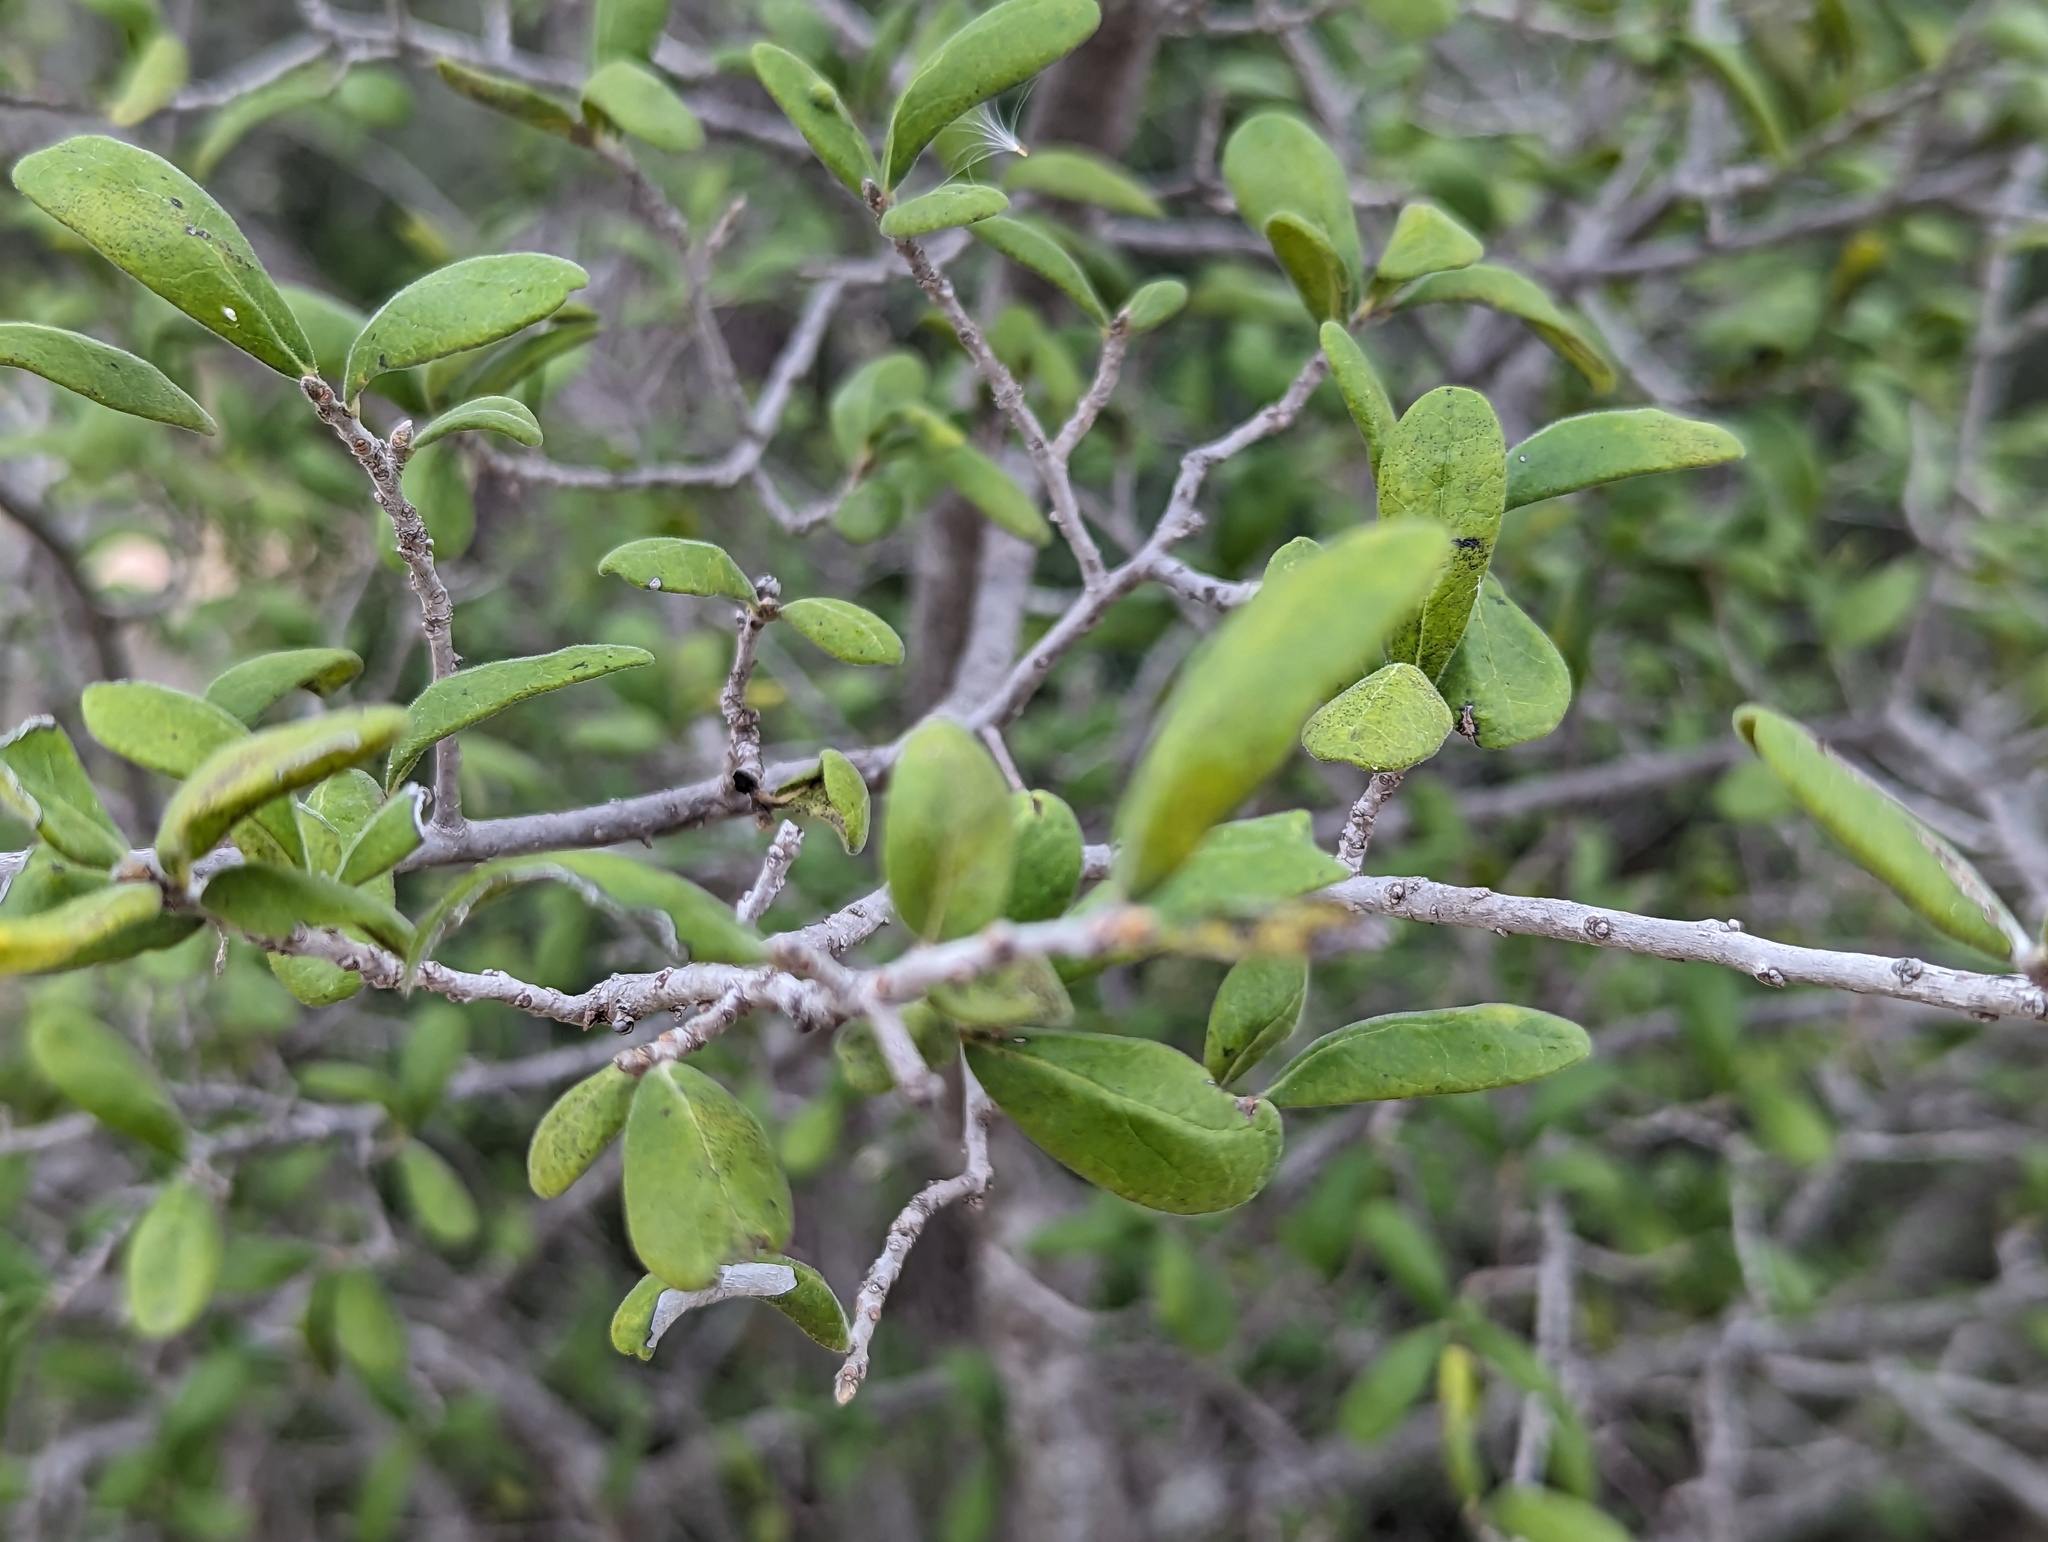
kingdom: Plantae
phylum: Tracheophyta
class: Magnoliopsida
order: Ericales
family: Ebenaceae
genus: Diospyros
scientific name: Diospyros texana
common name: Texas persimmon
